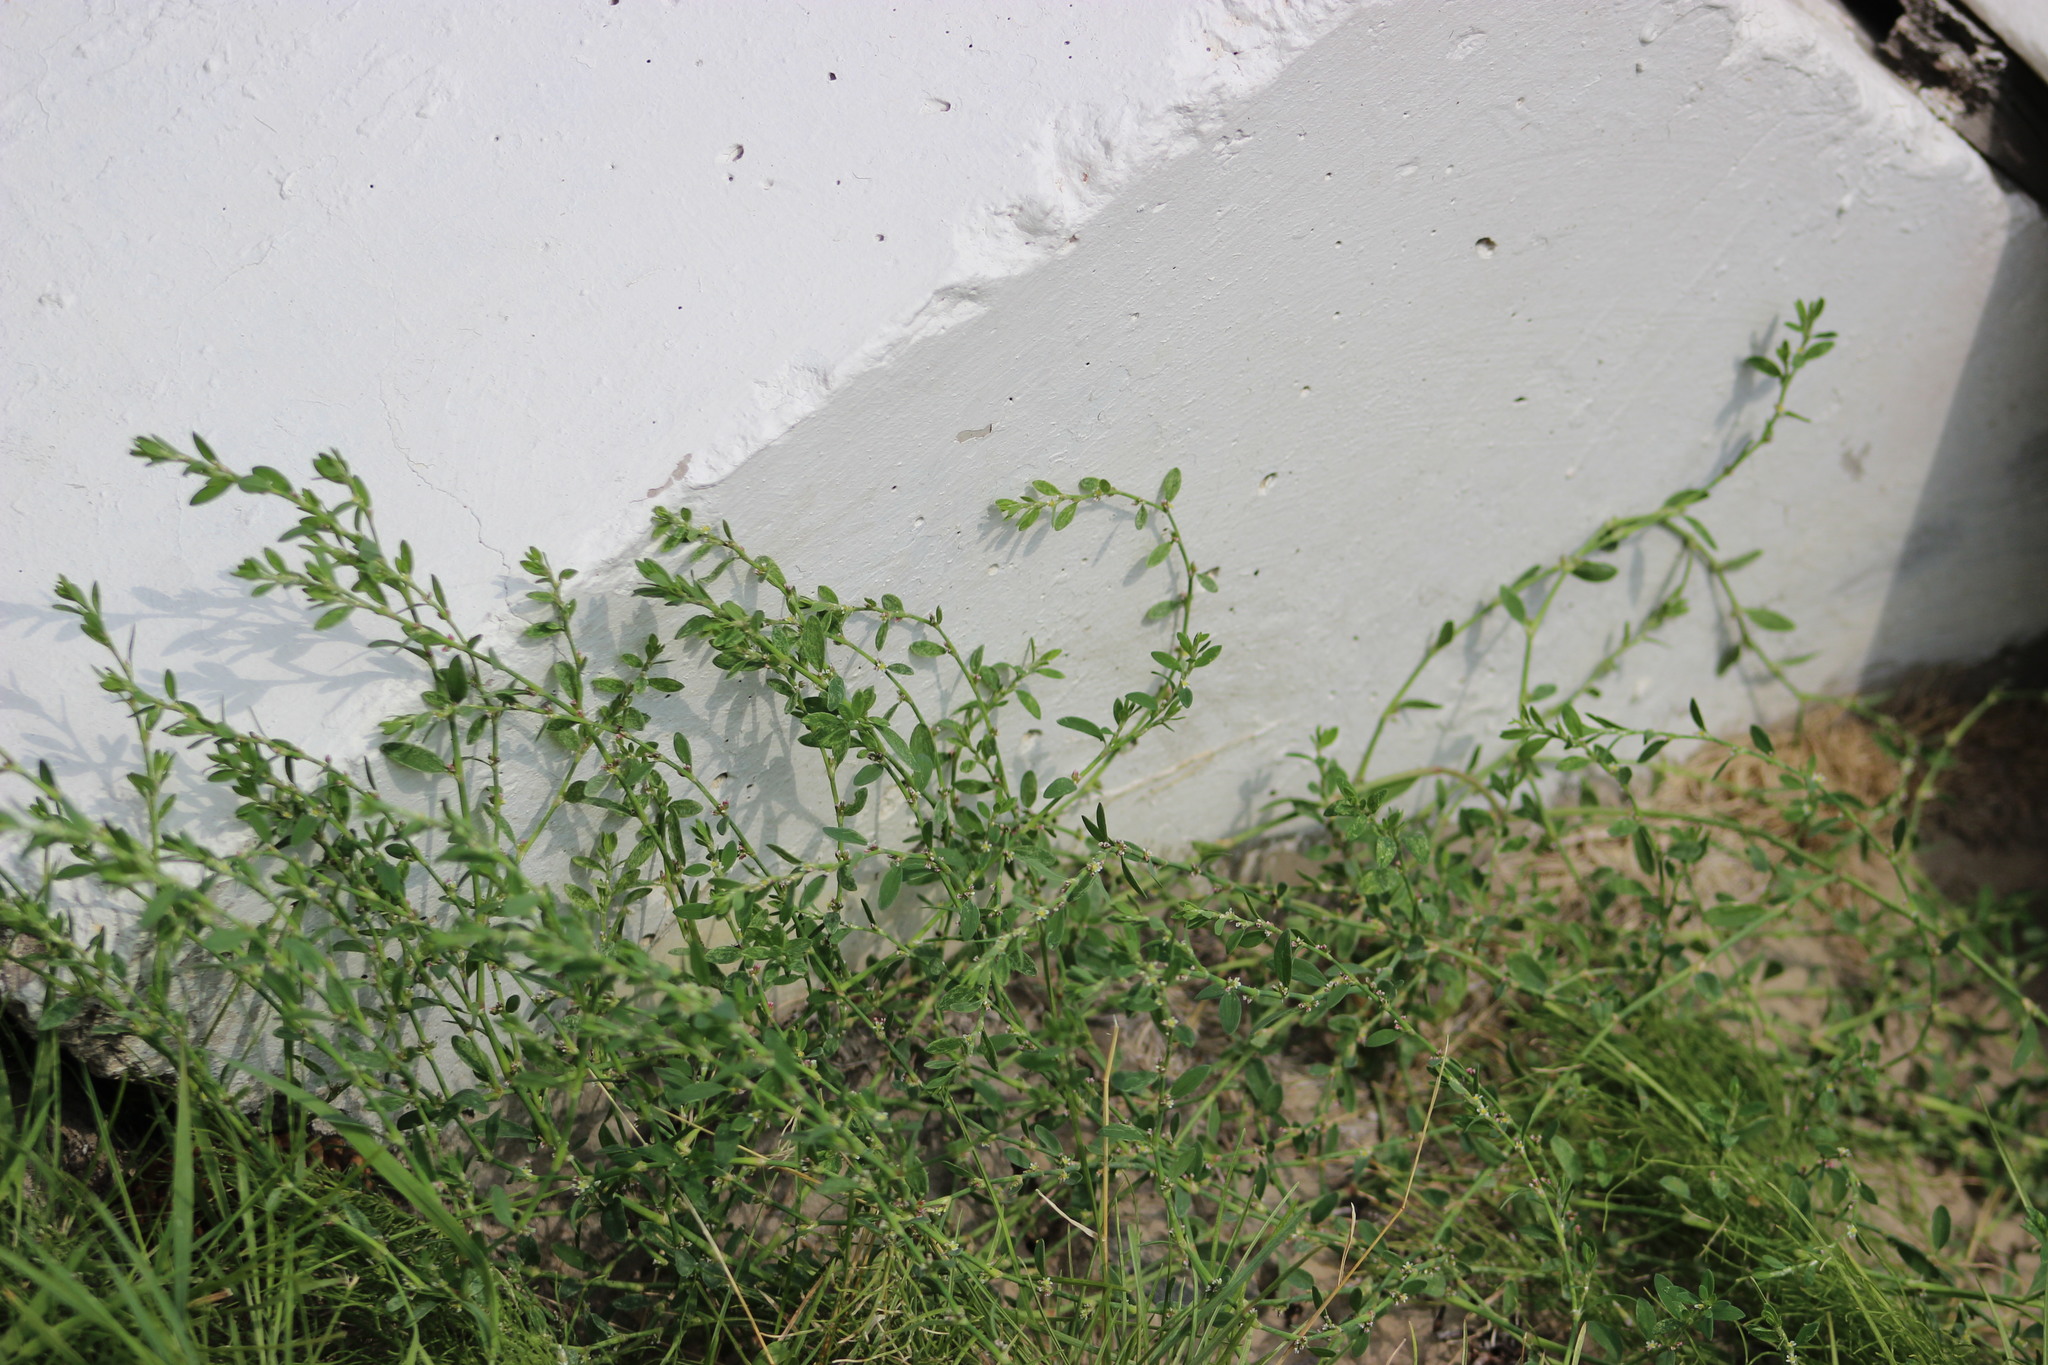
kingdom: Plantae
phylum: Tracheophyta
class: Magnoliopsida
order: Caryophyllales
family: Polygonaceae
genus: Polygonum
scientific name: Polygonum aviculare
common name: Prostrate knotweed
